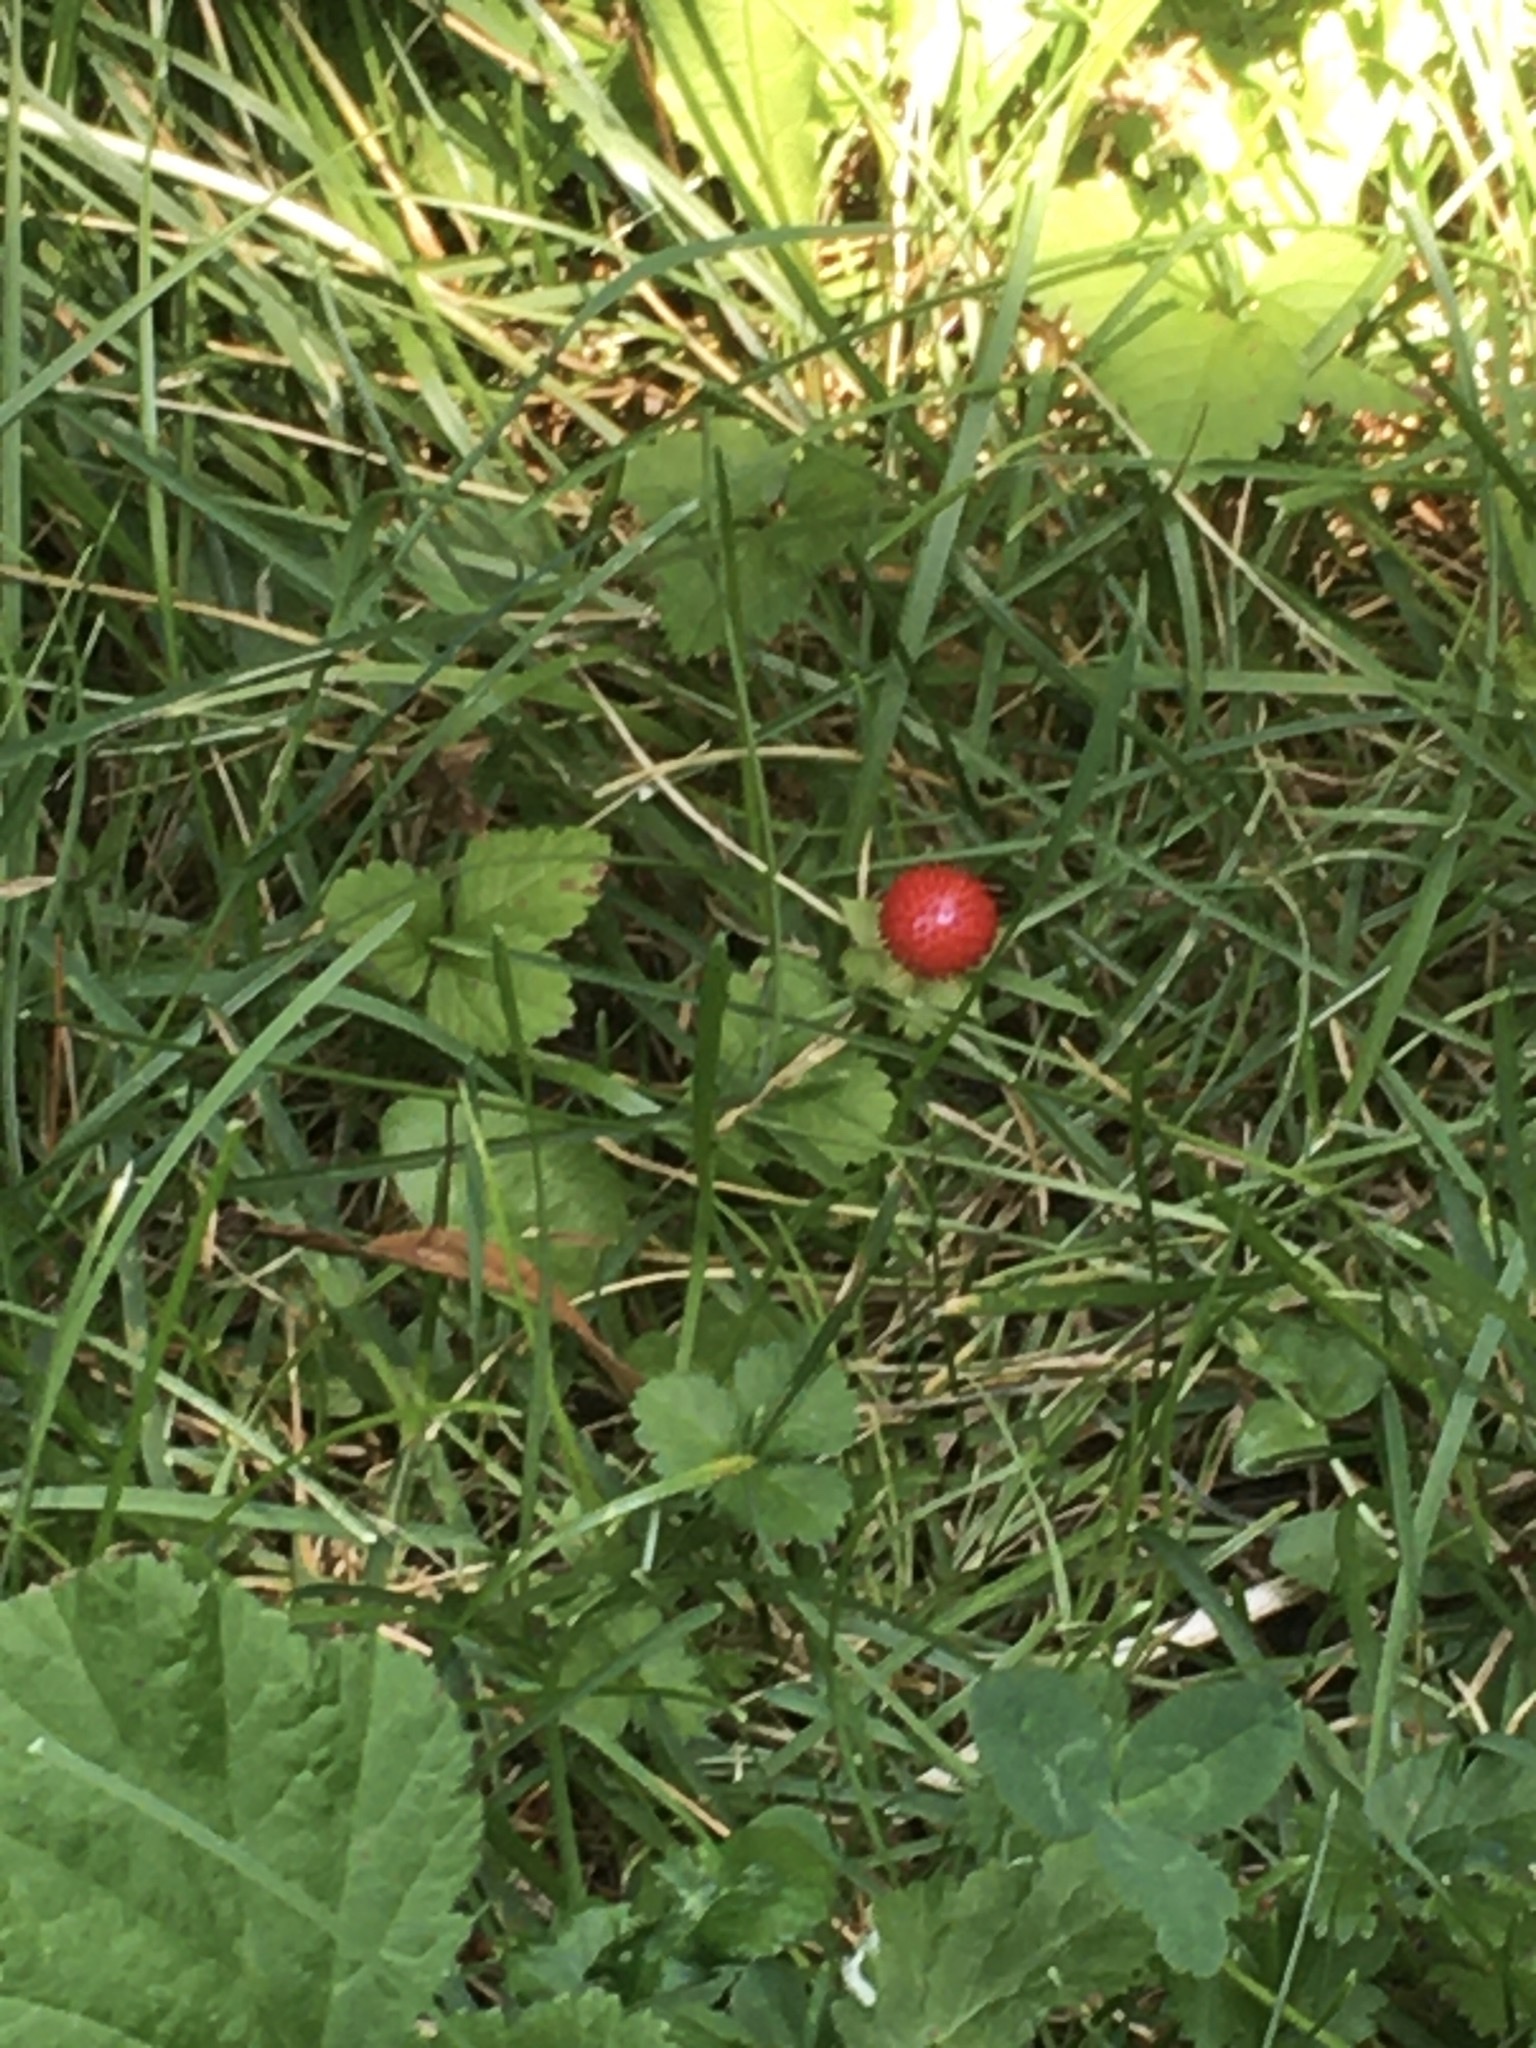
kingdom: Plantae
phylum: Tracheophyta
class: Magnoliopsida
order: Rosales
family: Rosaceae
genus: Potentilla
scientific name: Potentilla indica
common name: Yellow-flowered strawberry
